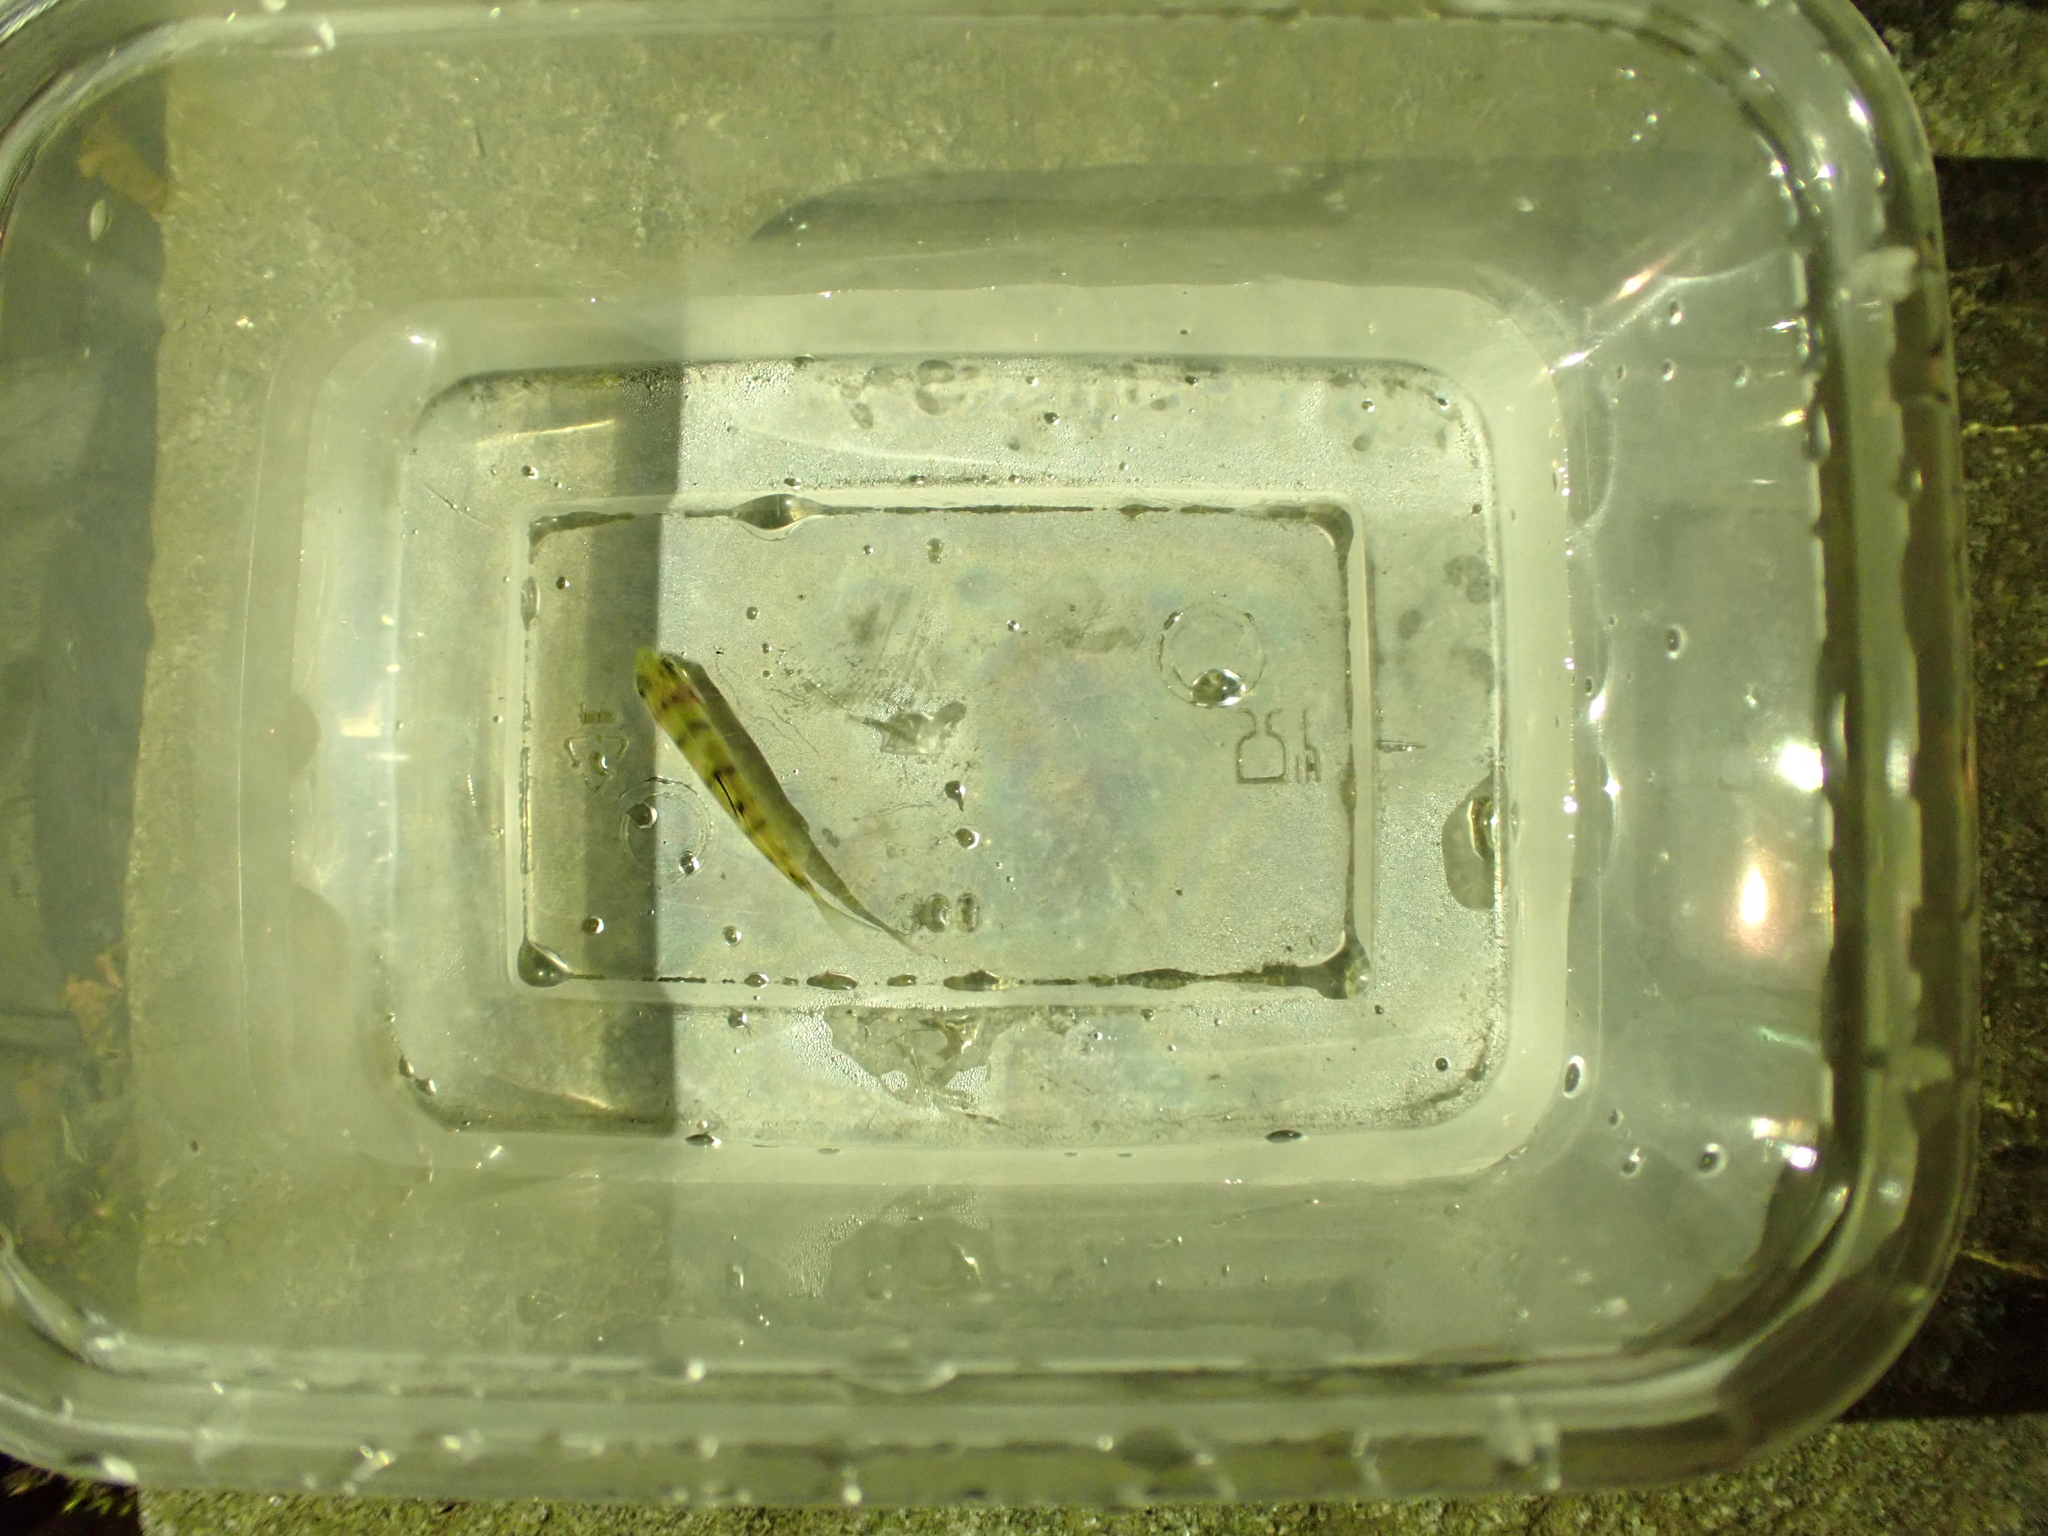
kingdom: Animalia
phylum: Chordata
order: Cypriniformes
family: Cyprinidae
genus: Acrossocheilus
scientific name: Acrossocheilus paradoxus
